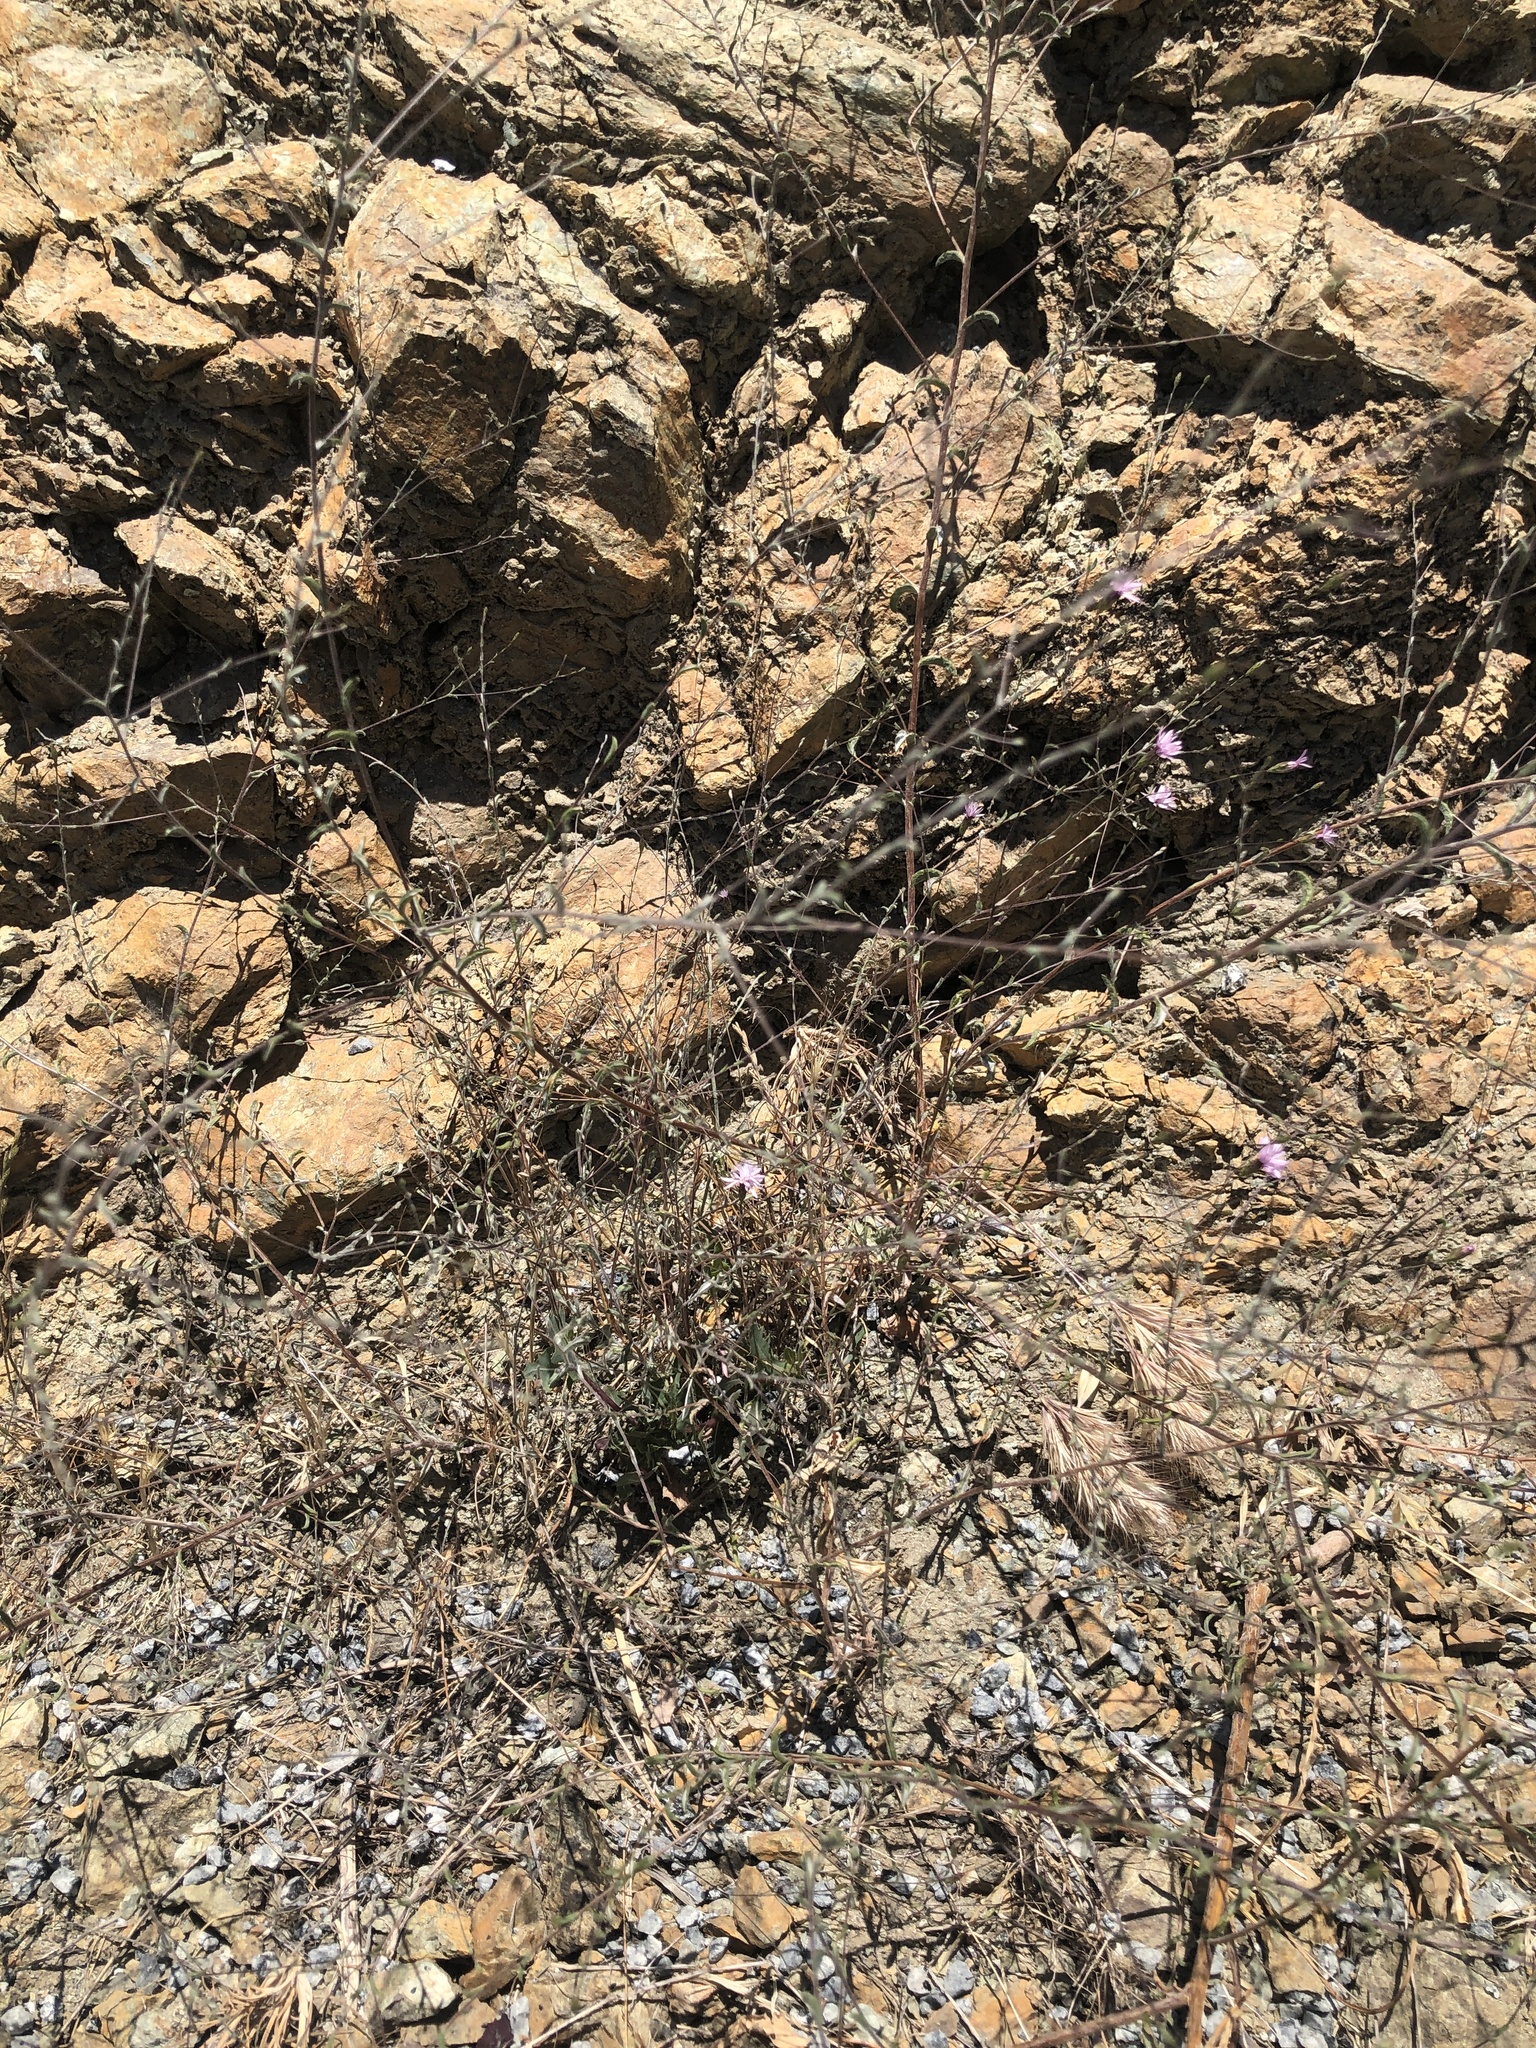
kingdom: Plantae
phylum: Tracheophyta
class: Magnoliopsida
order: Asterales
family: Asteraceae
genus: Lessingia
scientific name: Lessingia micradenia
